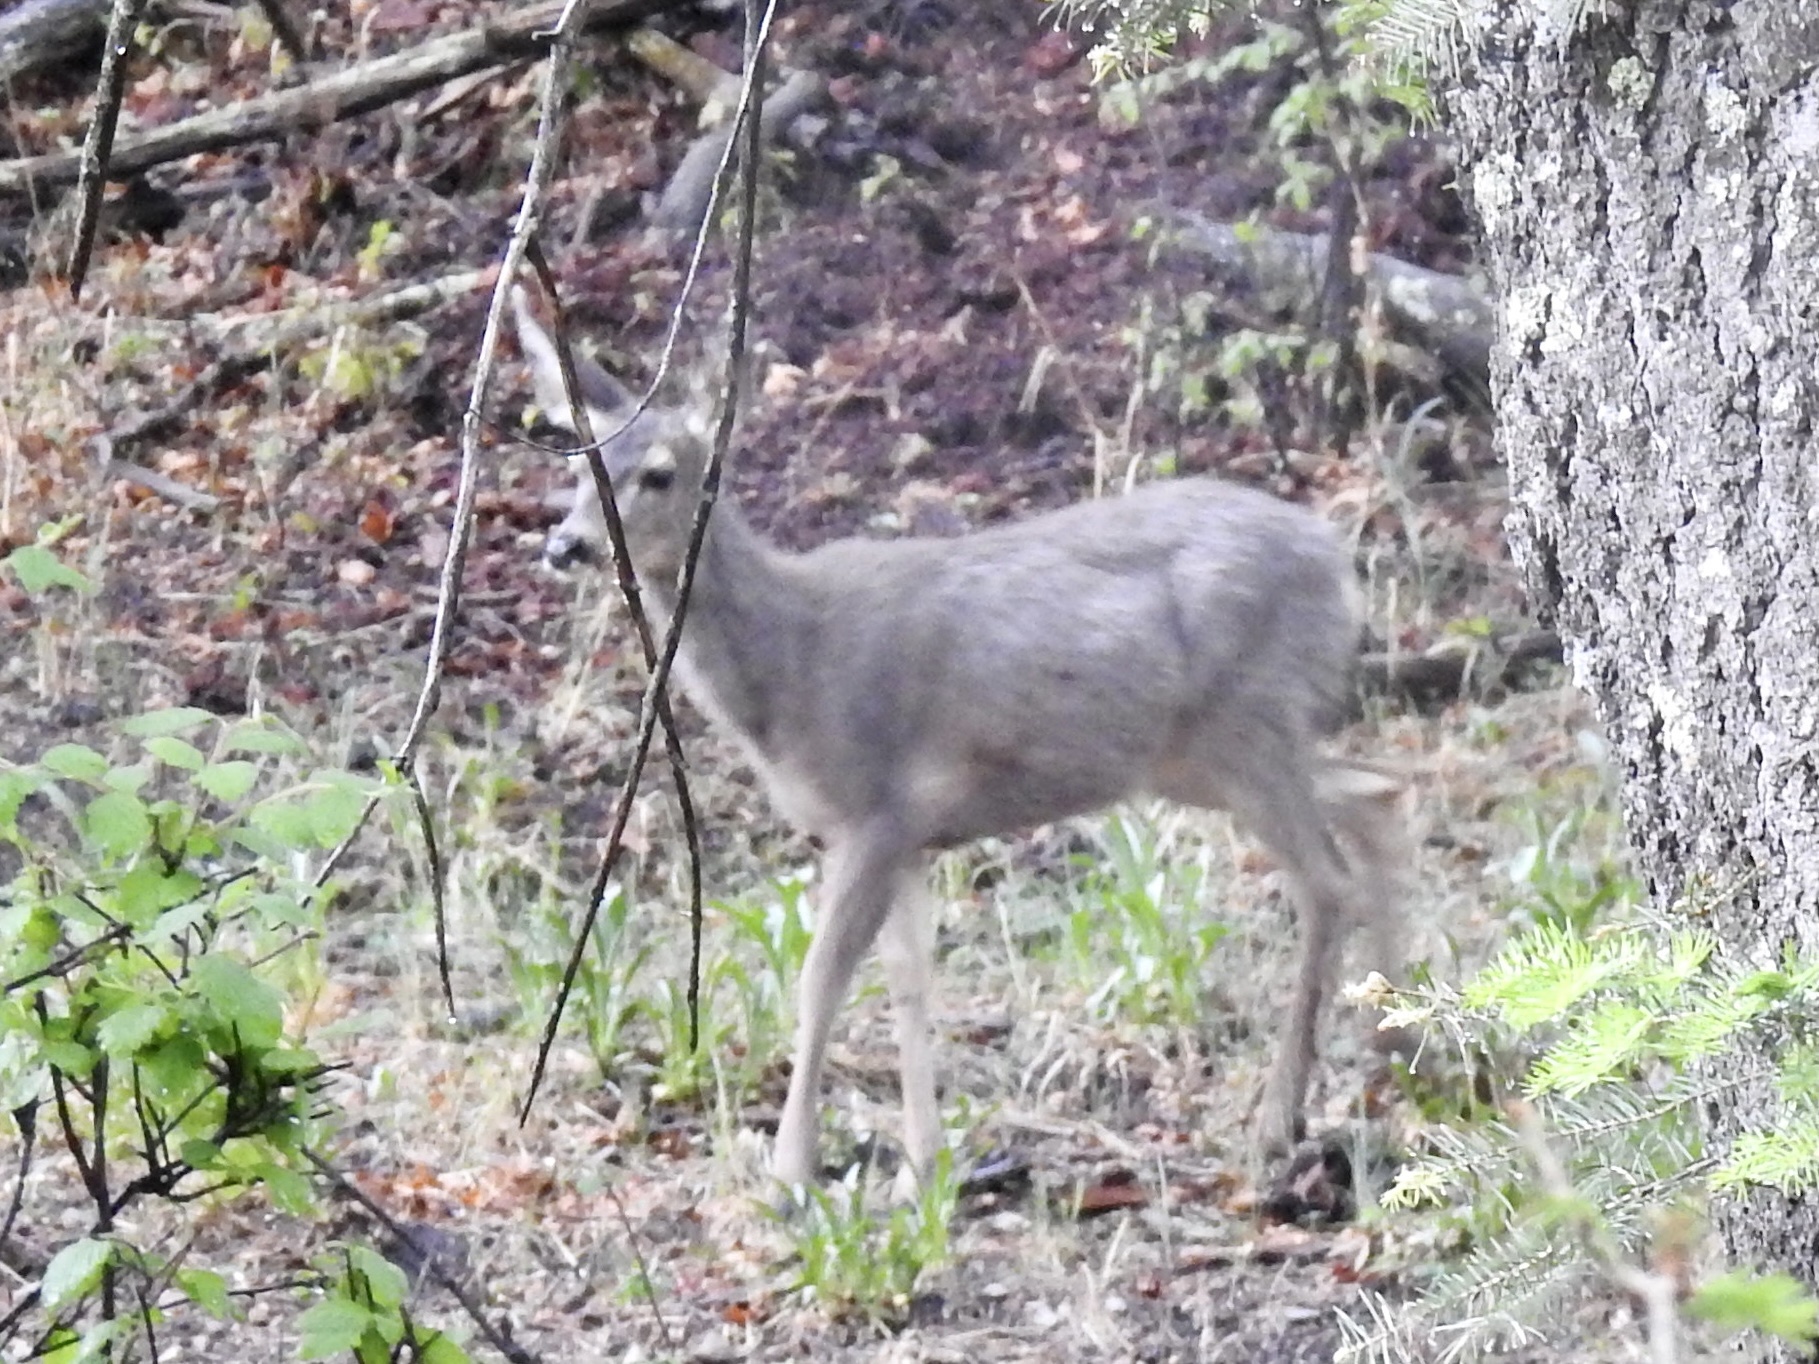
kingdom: Animalia
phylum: Chordata
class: Mammalia
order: Artiodactyla
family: Cervidae
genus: Odocoileus
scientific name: Odocoileus hemionus
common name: Mule deer
